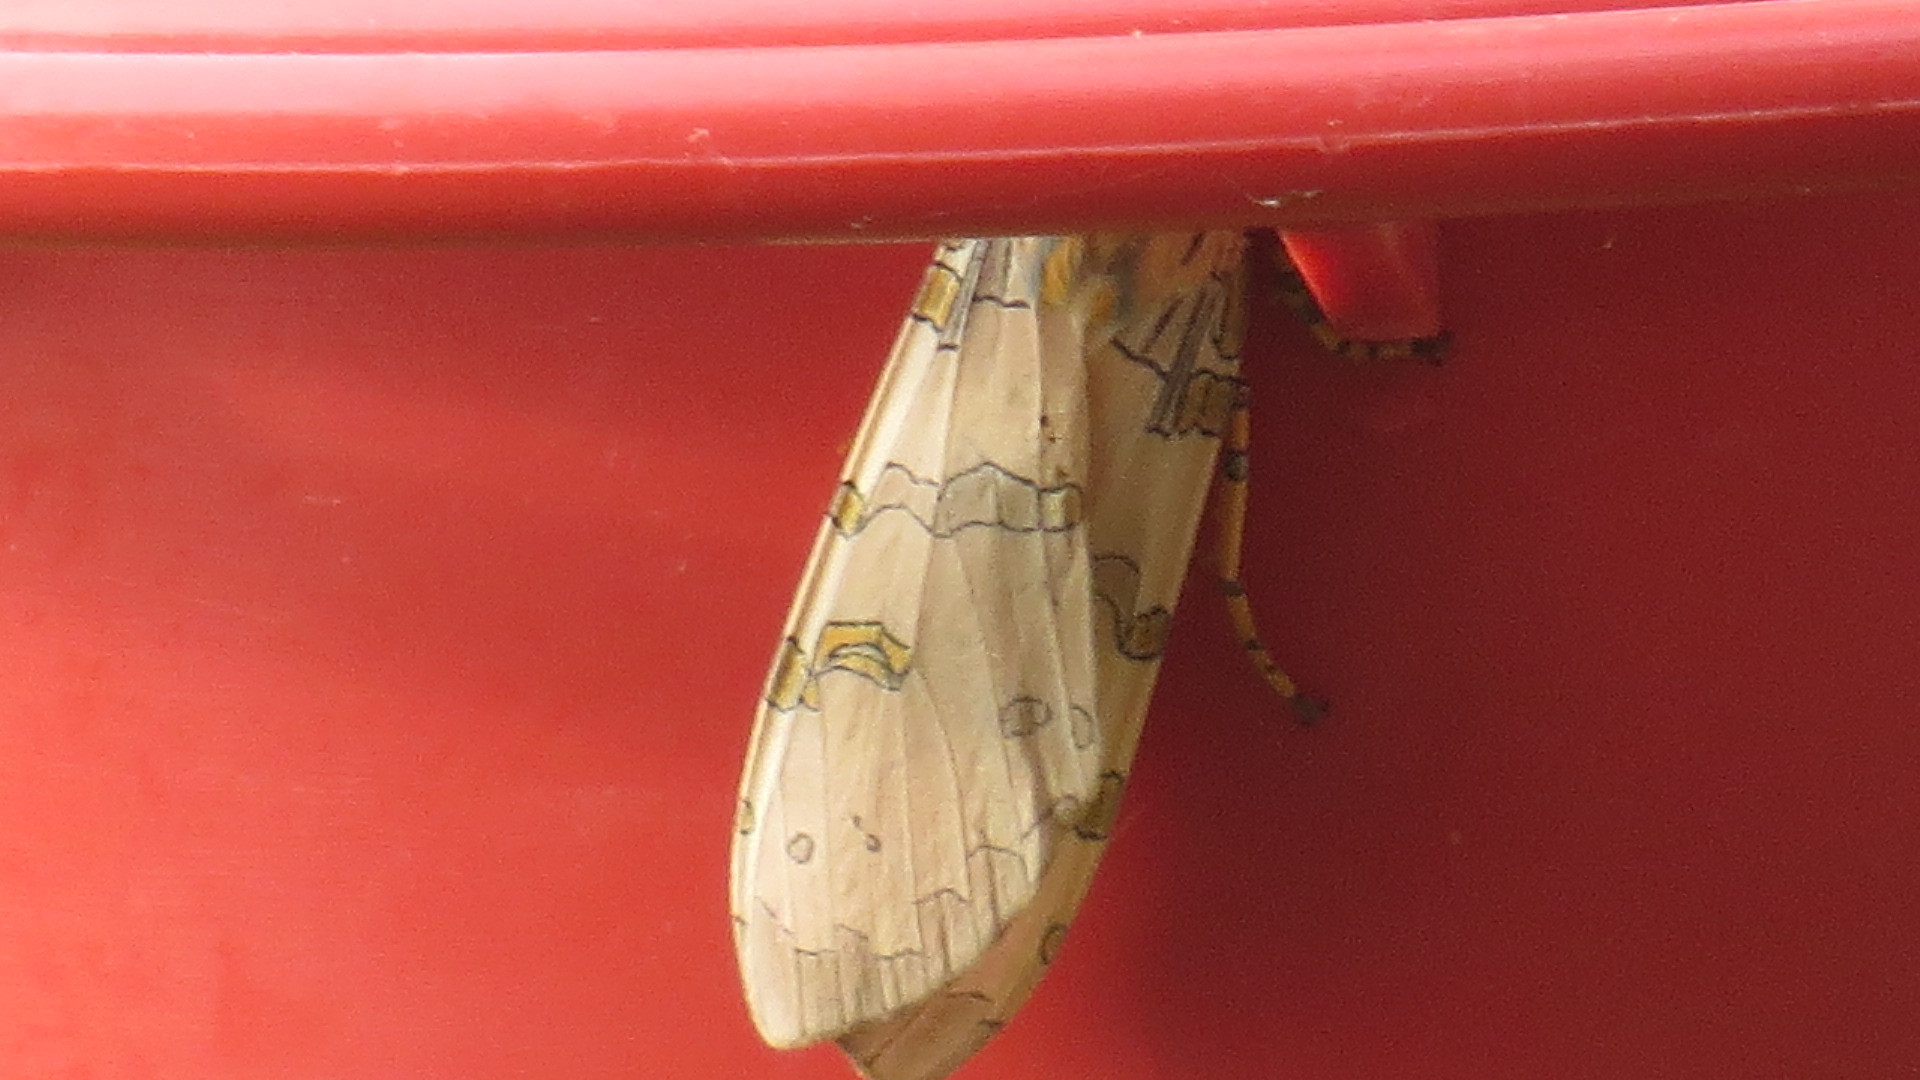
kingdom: Animalia
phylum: Arthropoda
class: Insecta
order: Lepidoptera
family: Erebidae
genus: Halysidota
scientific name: Halysidota schausi
